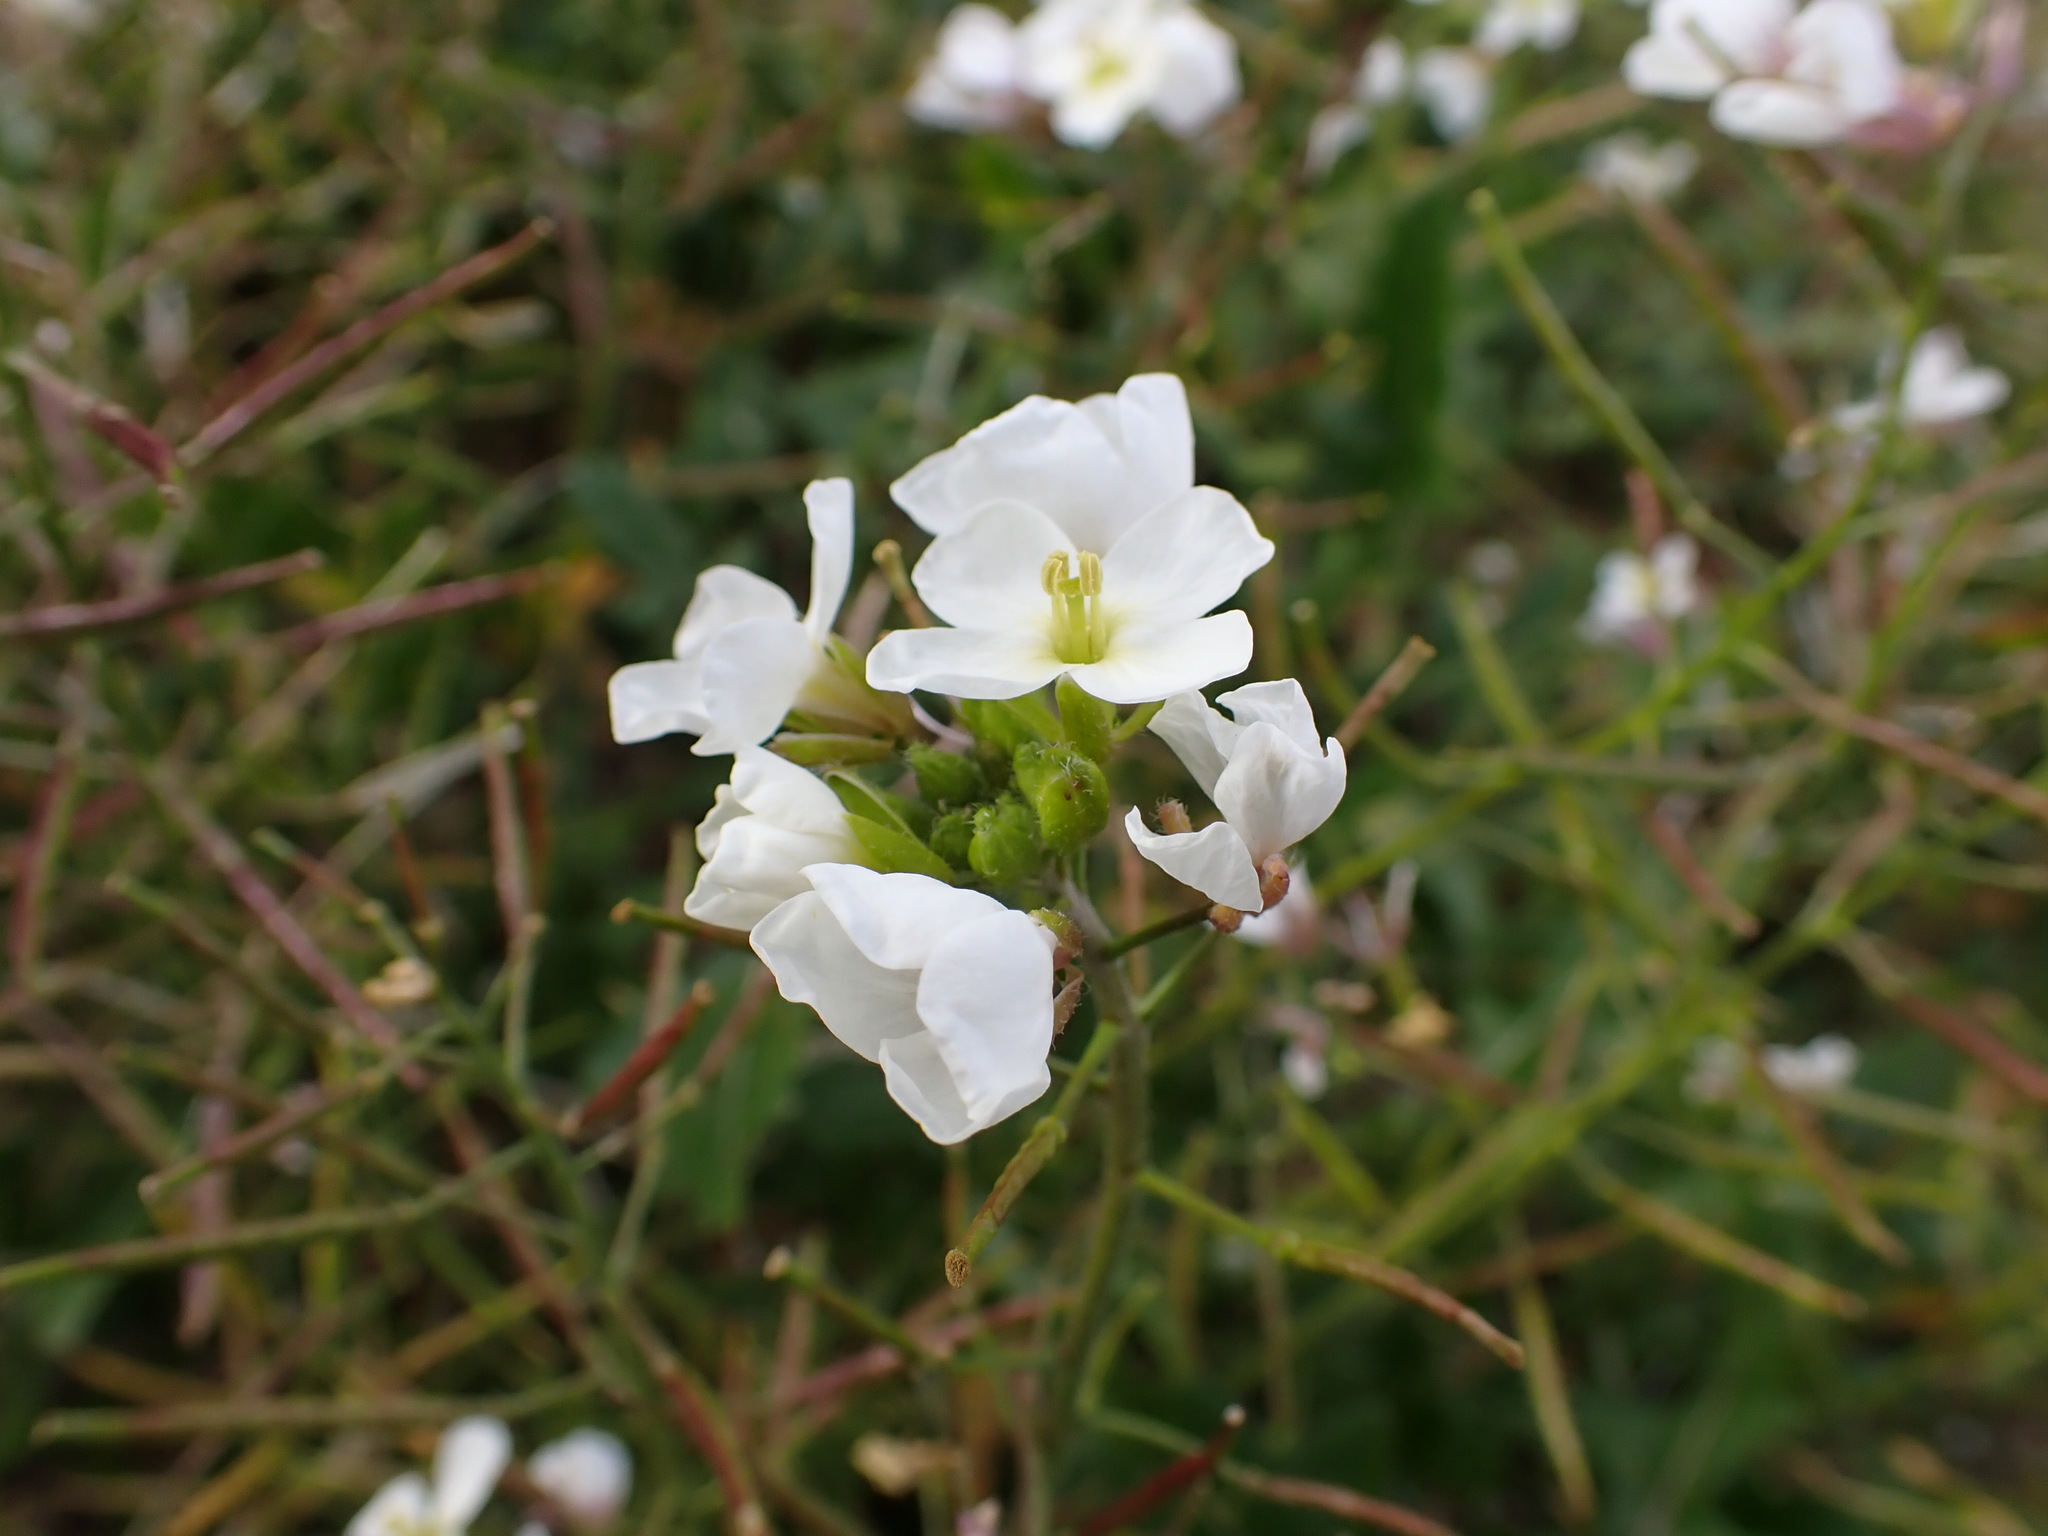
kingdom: Plantae
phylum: Tracheophyta
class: Magnoliopsida
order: Brassicales
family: Brassicaceae
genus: Diplotaxis
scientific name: Diplotaxis erucoides
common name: White rocket
